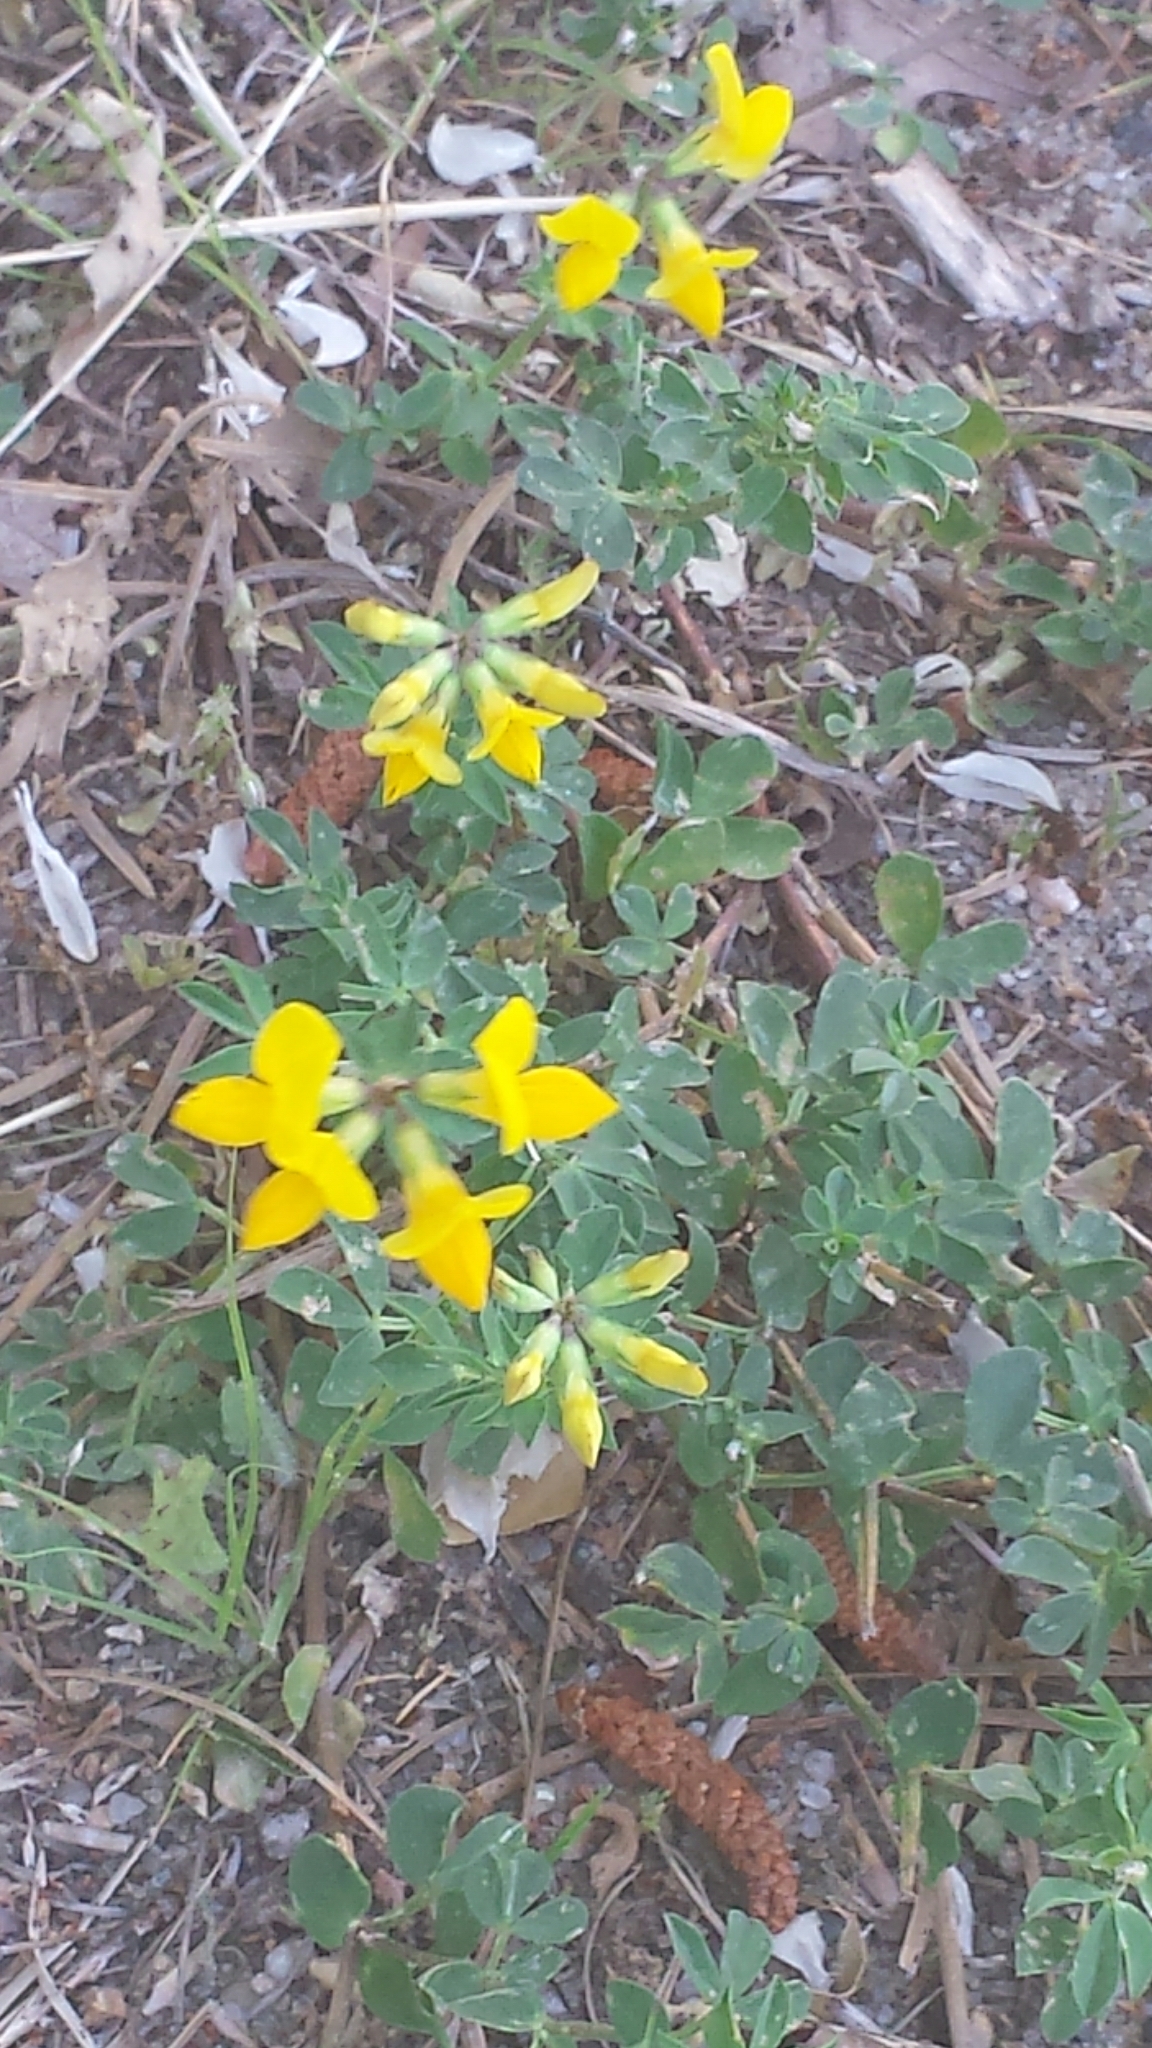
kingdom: Plantae
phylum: Tracheophyta
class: Magnoliopsida
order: Fabales
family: Fabaceae
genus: Lotus
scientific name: Lotus corniculatus
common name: Common bird's-foot-trefoil
